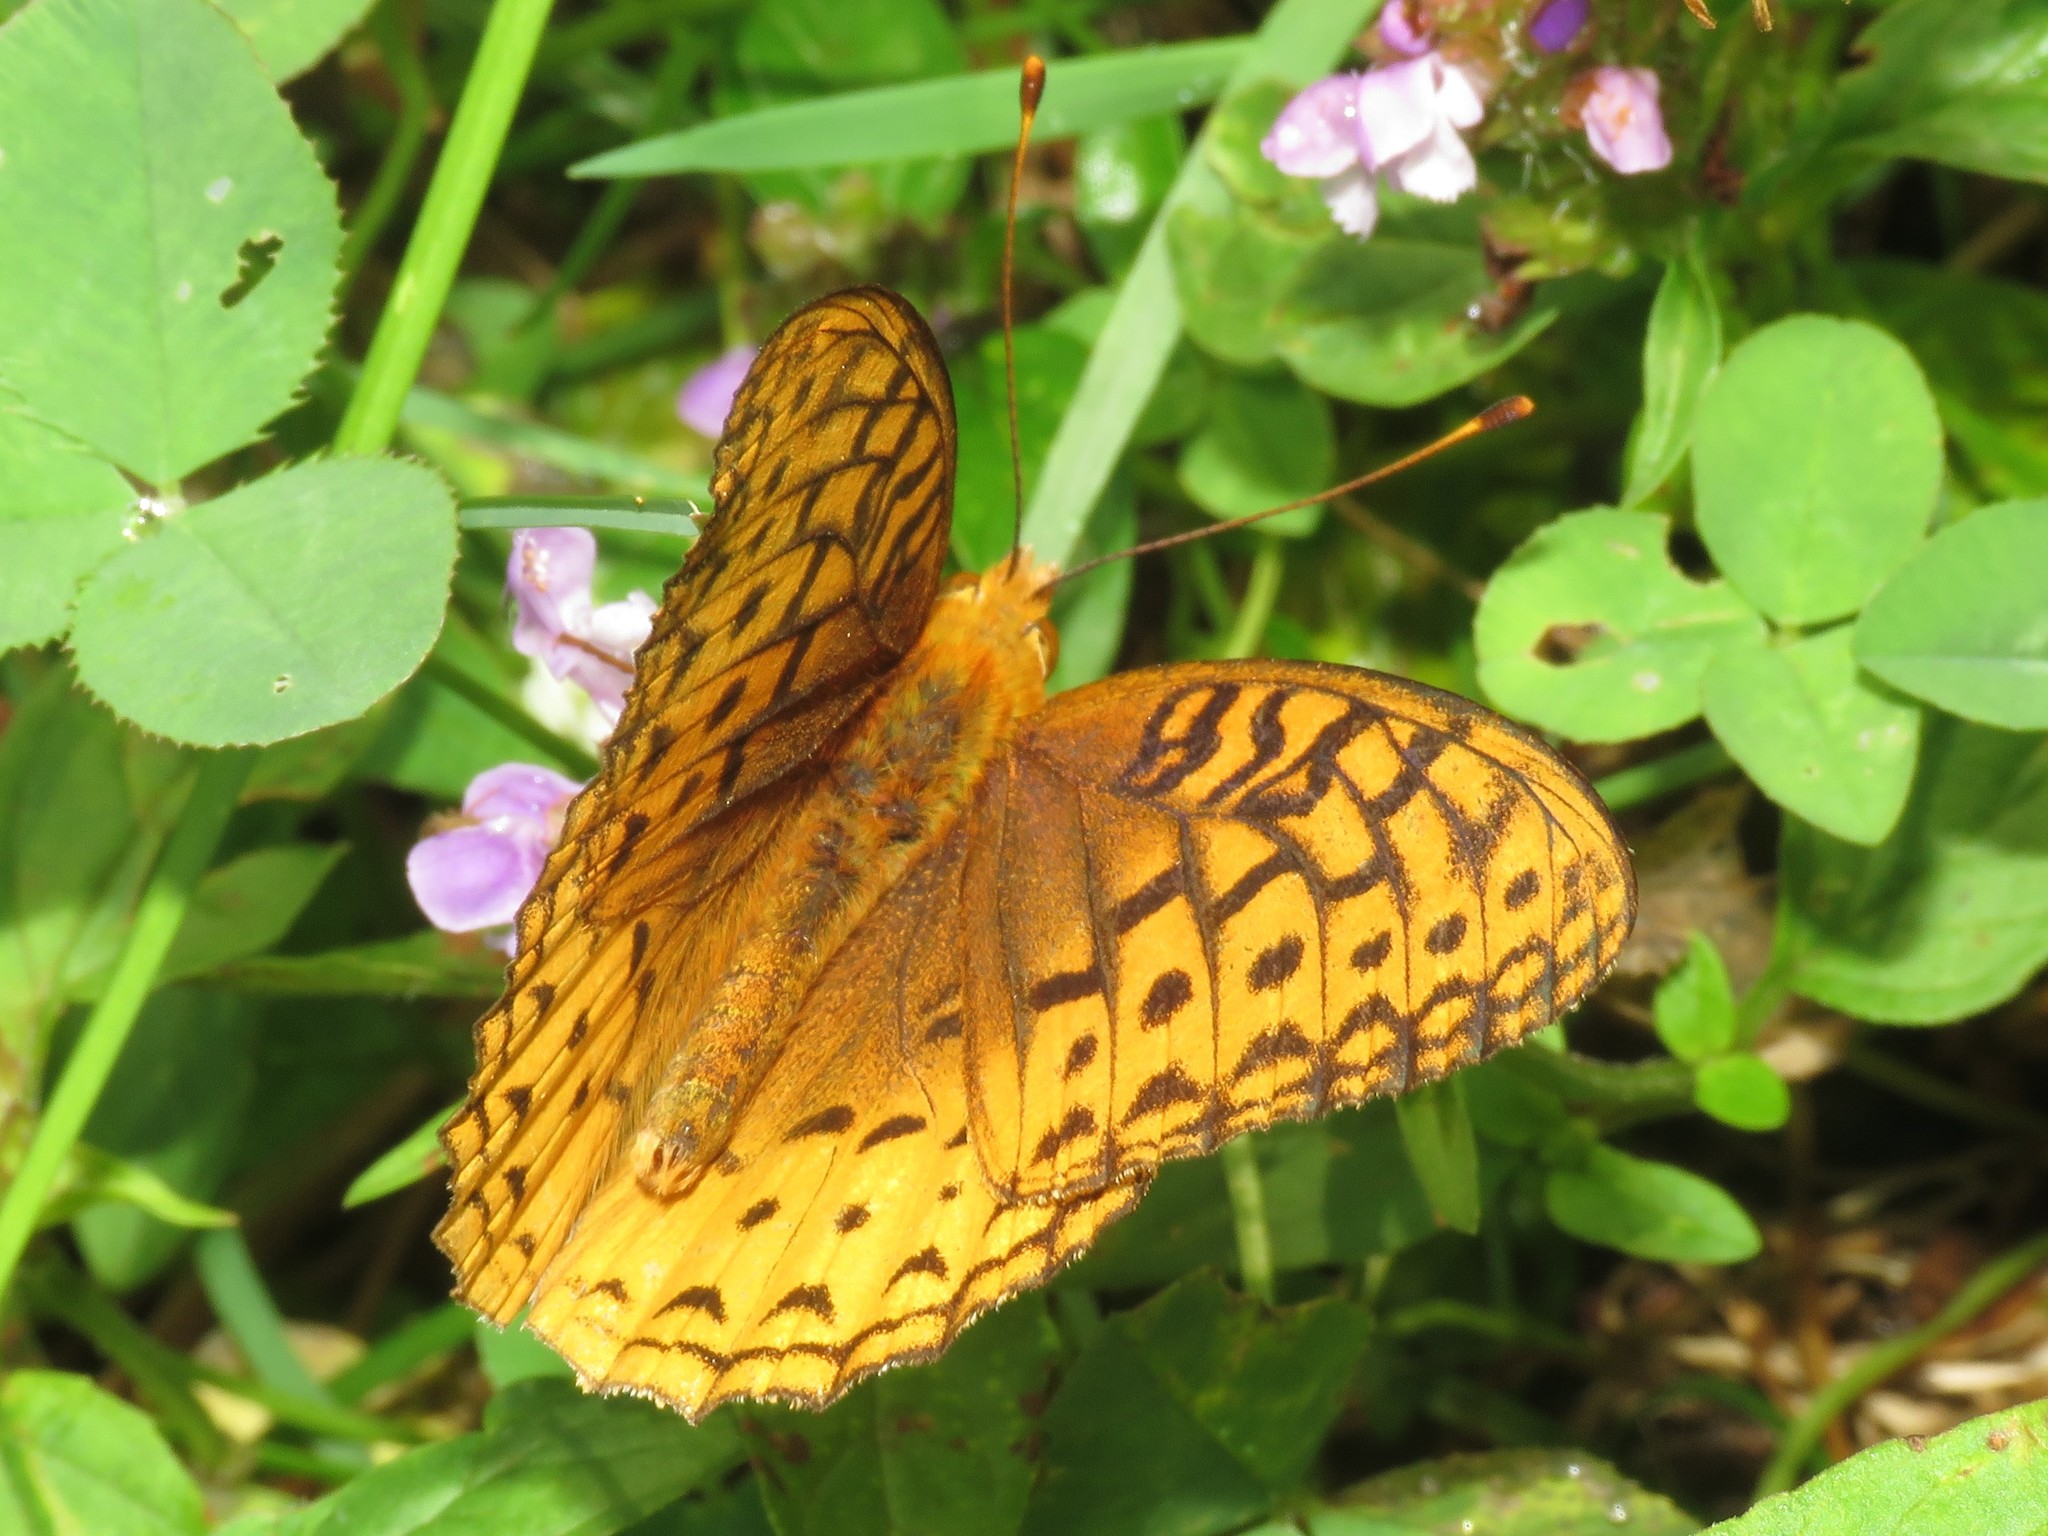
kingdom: Animalia
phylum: Arthropoda
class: Insecta
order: Lepidoptera
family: Nymphalidae
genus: Speyeria
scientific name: Speyeria cybele
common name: Great spangled fritillary
